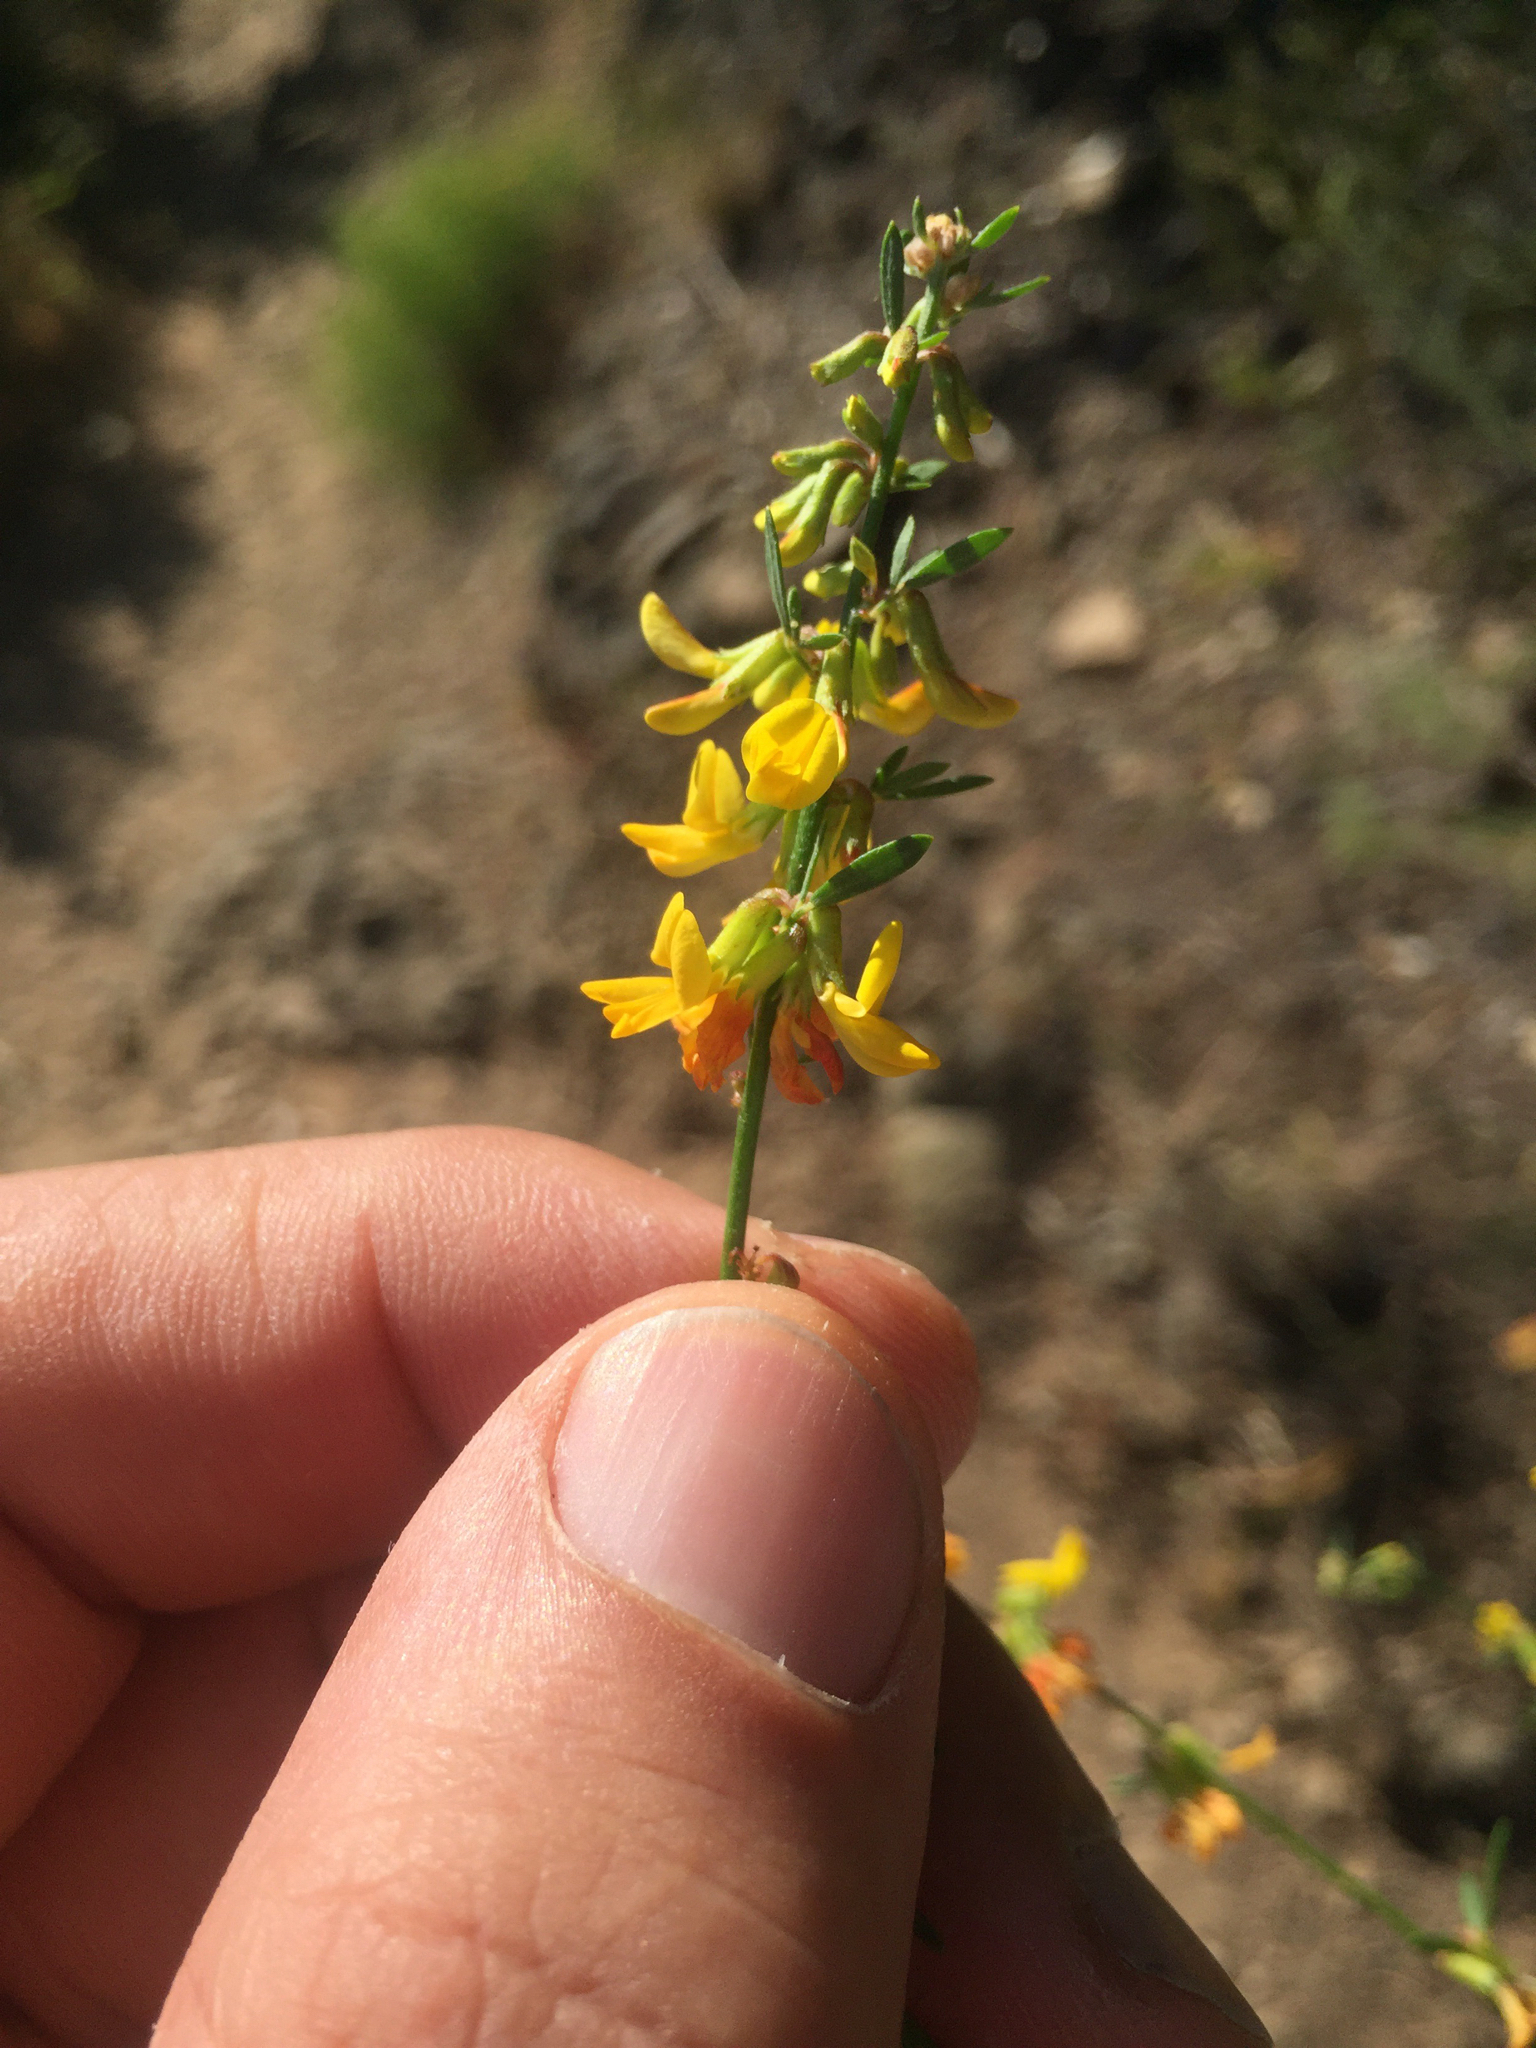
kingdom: Plantae
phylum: Tracheophyta
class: Magnoliopsida
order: Fabales
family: Fabaceae
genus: Acmispon
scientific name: Acmispon glaber
